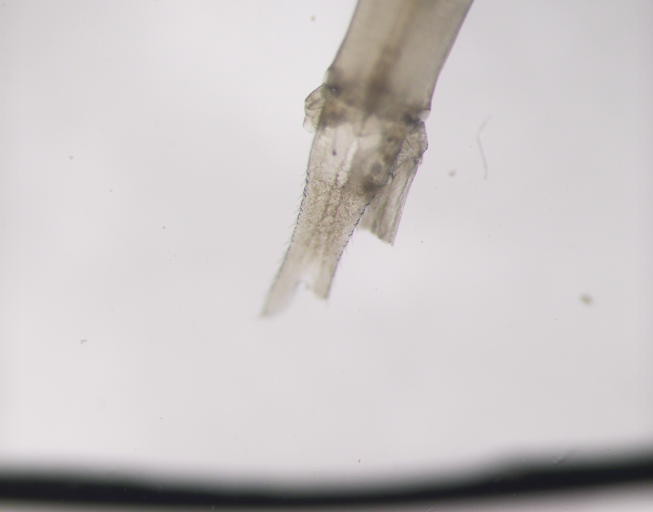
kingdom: Animalia
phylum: Arthropoda
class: Malacostraca
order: Mysida
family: Mysidae
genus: Boreomysis
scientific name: Boreomysis arctica
